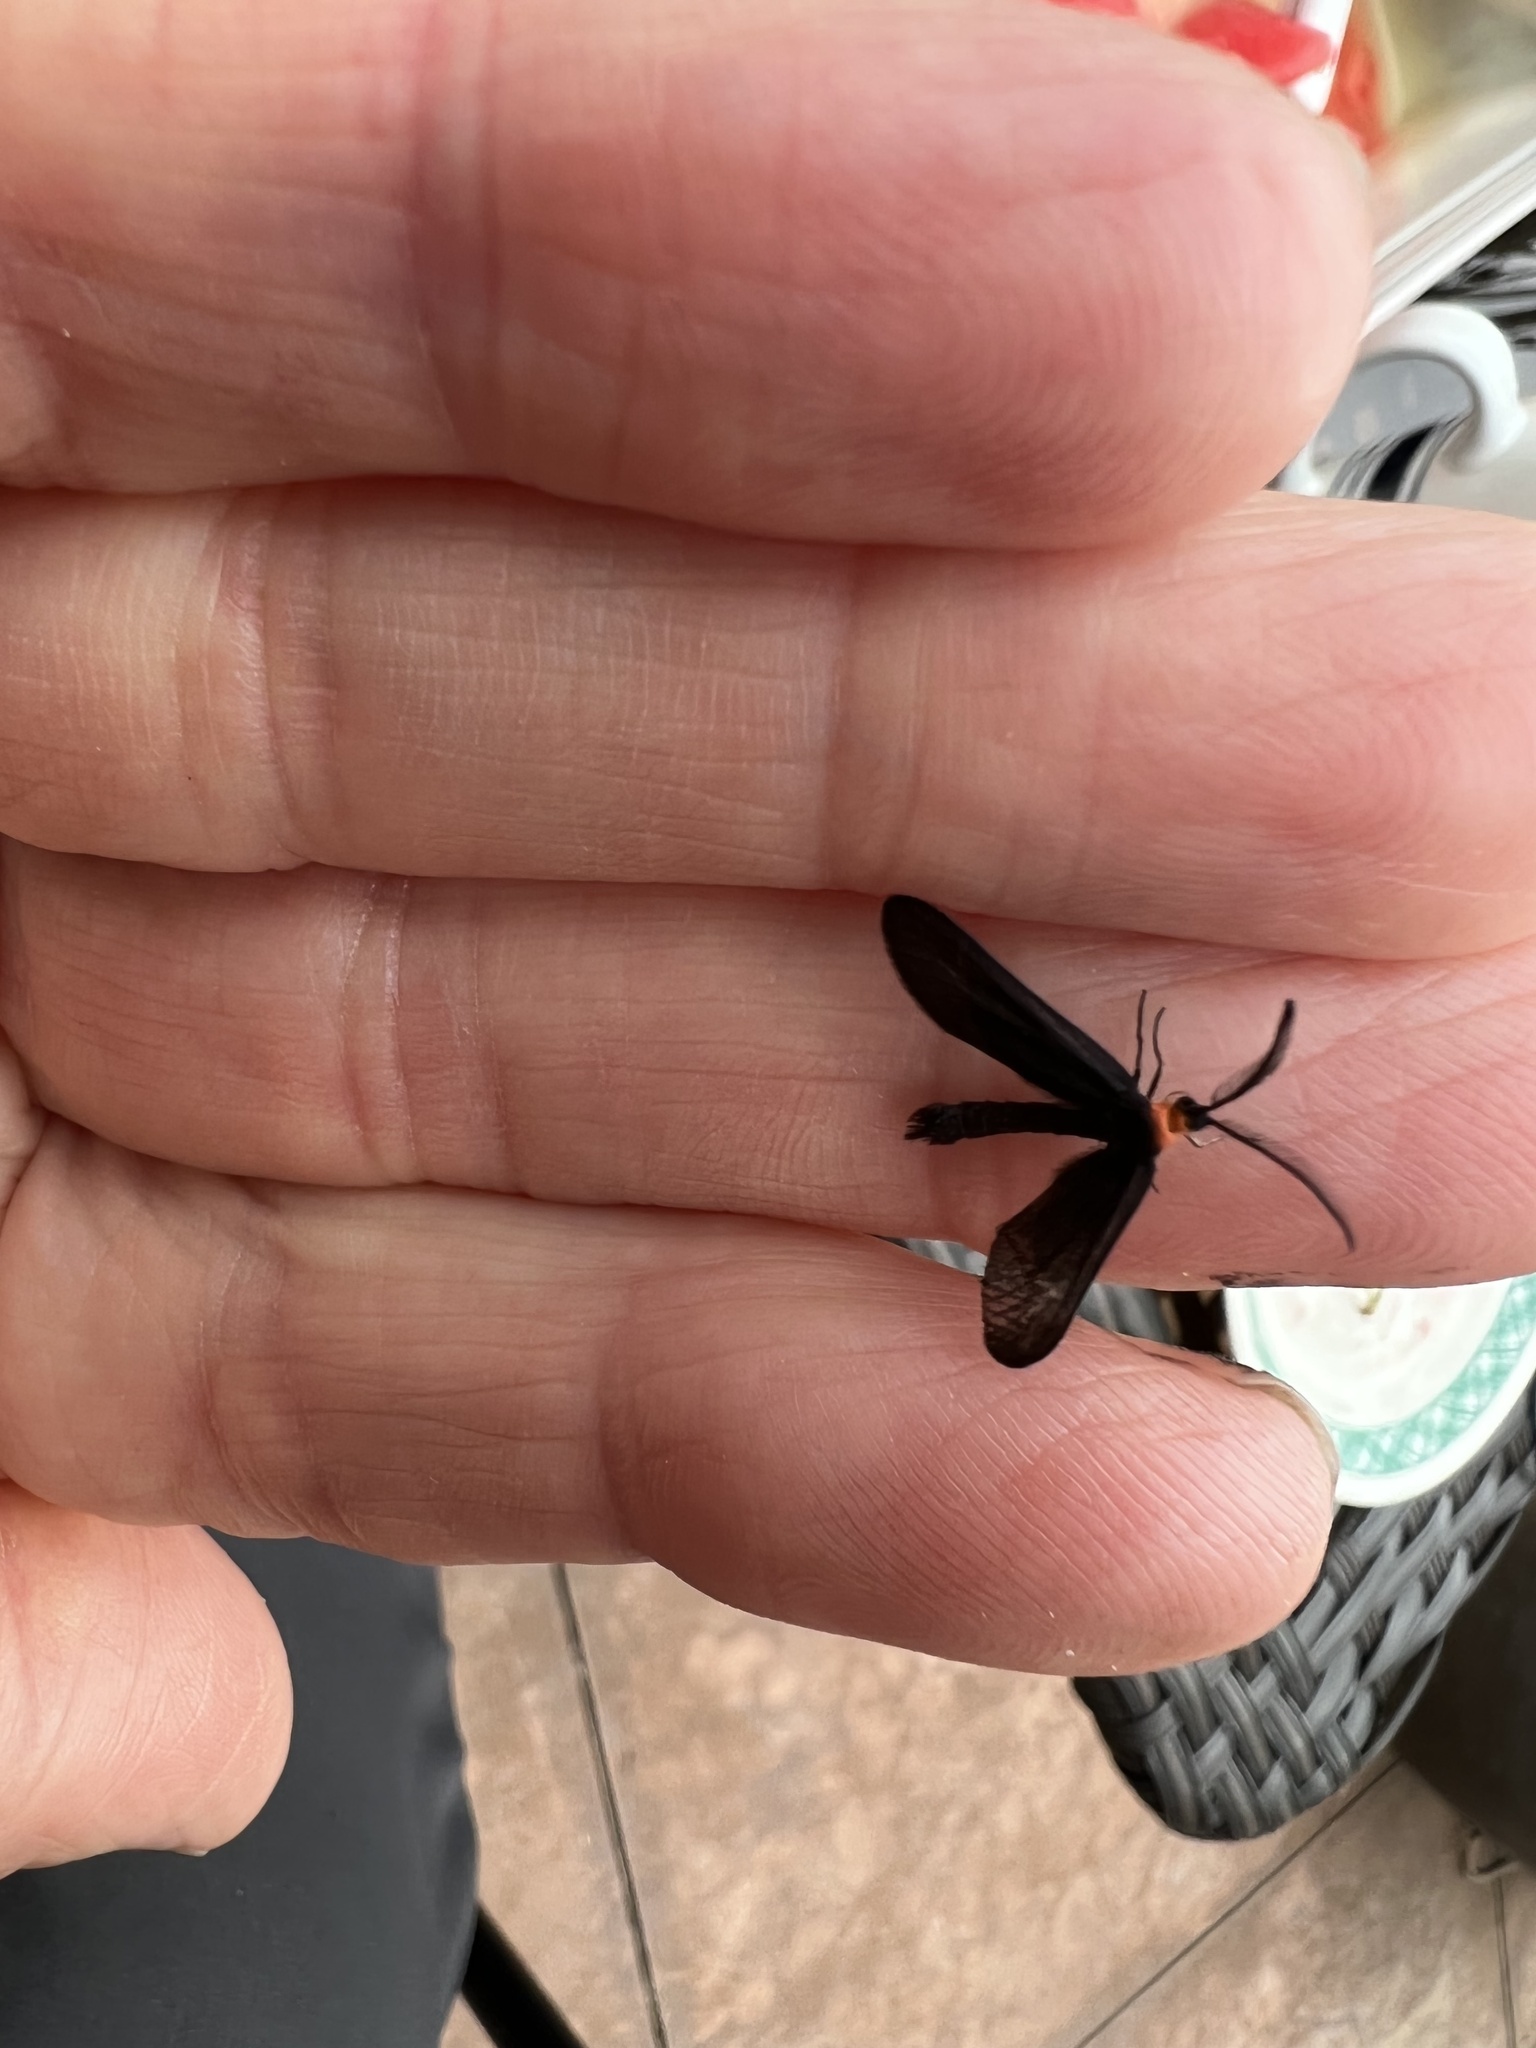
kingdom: Animalia
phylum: Arthropoda
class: Insecta
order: Lepidoptera
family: Zygaenidae
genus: Harrisina
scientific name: Harrisina americana
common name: Grapeleaf skeletonizer moth
